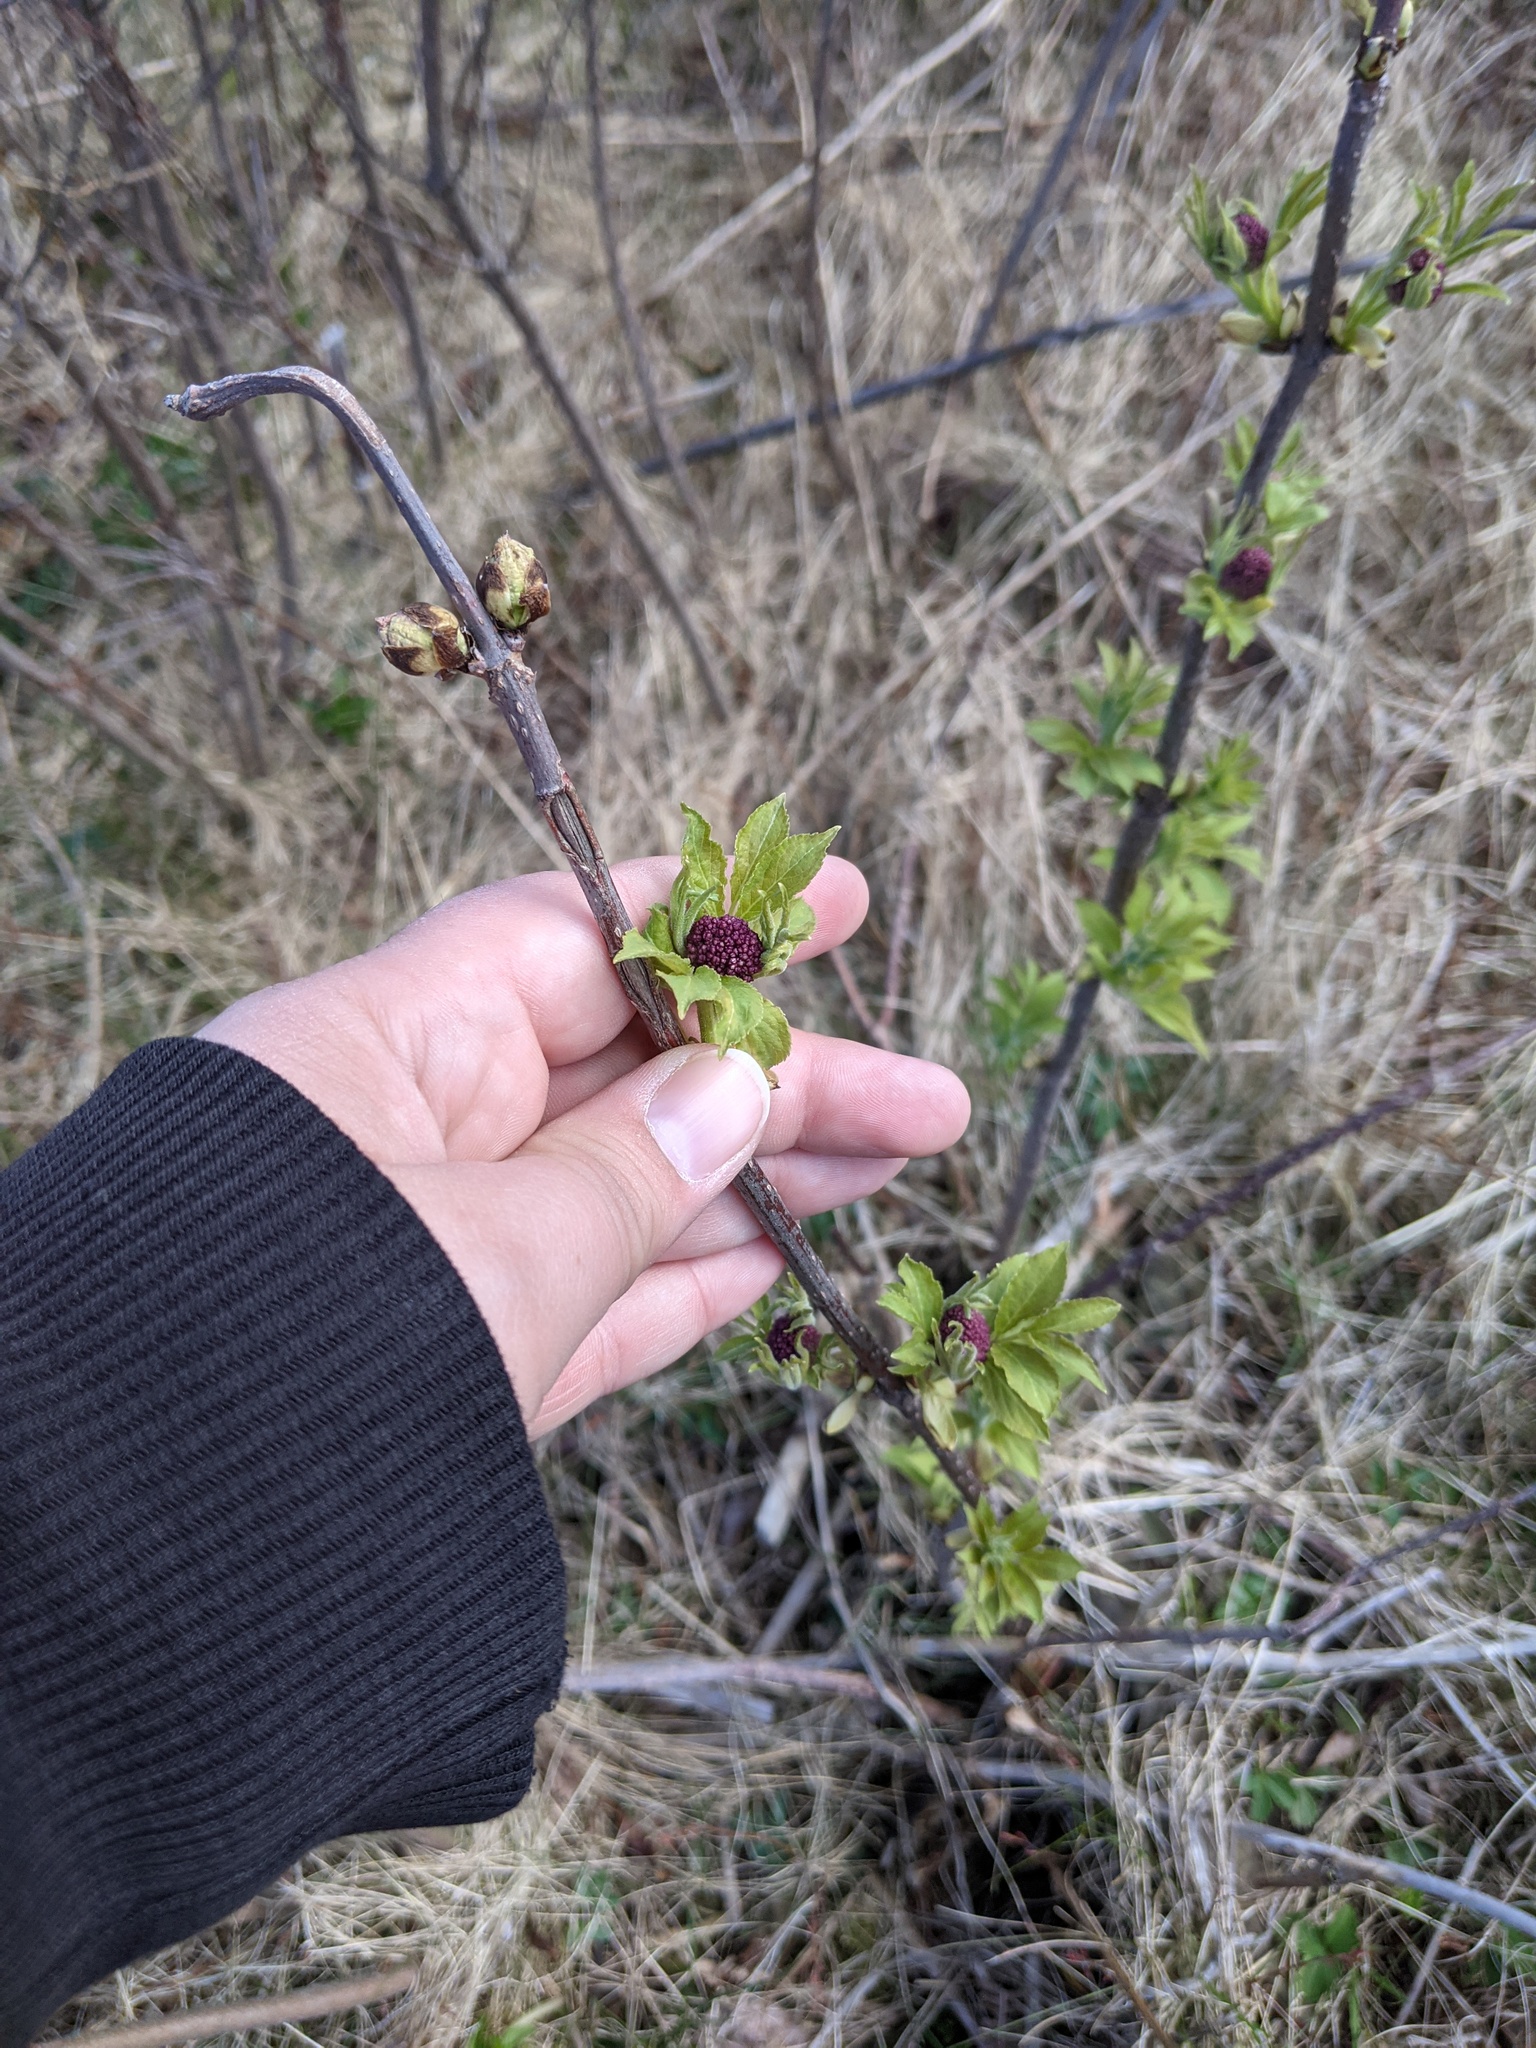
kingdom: Plantae
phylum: Tracheophyta
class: Magnoliopsida
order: Dipsacales
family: Viburnaceae
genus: Sambucus
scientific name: Sambucus racemosa
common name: Red-berried elder
